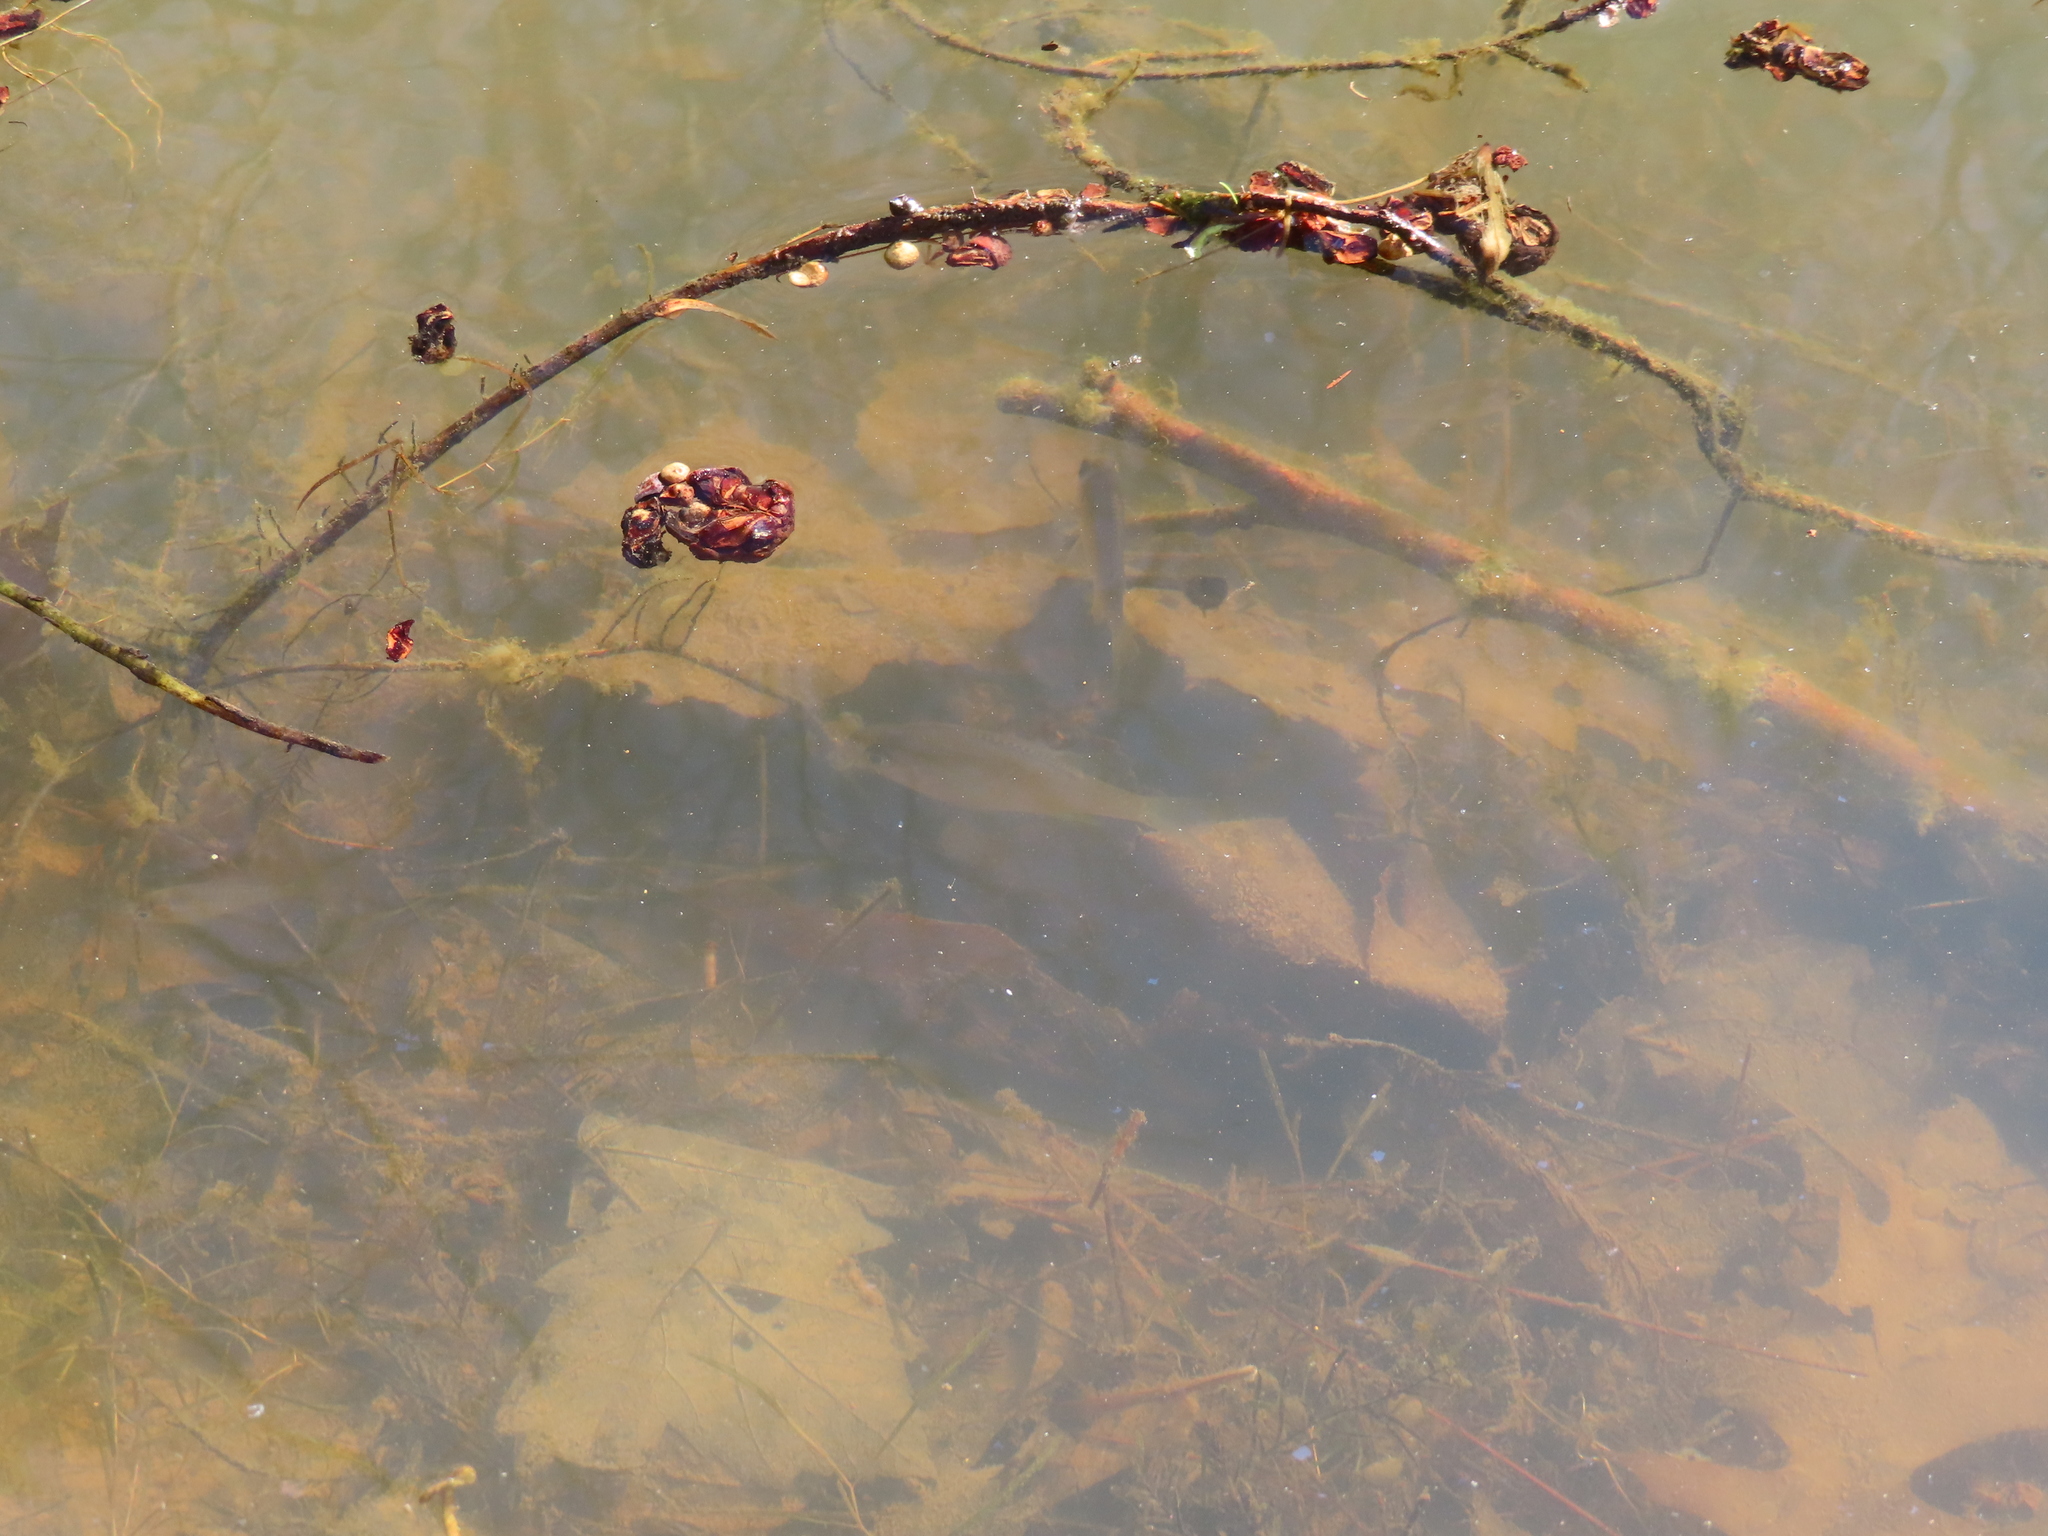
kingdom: Animalia
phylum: Chordata
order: Perciformes
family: Centrarchidae
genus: Lepomis
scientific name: Lepomis
